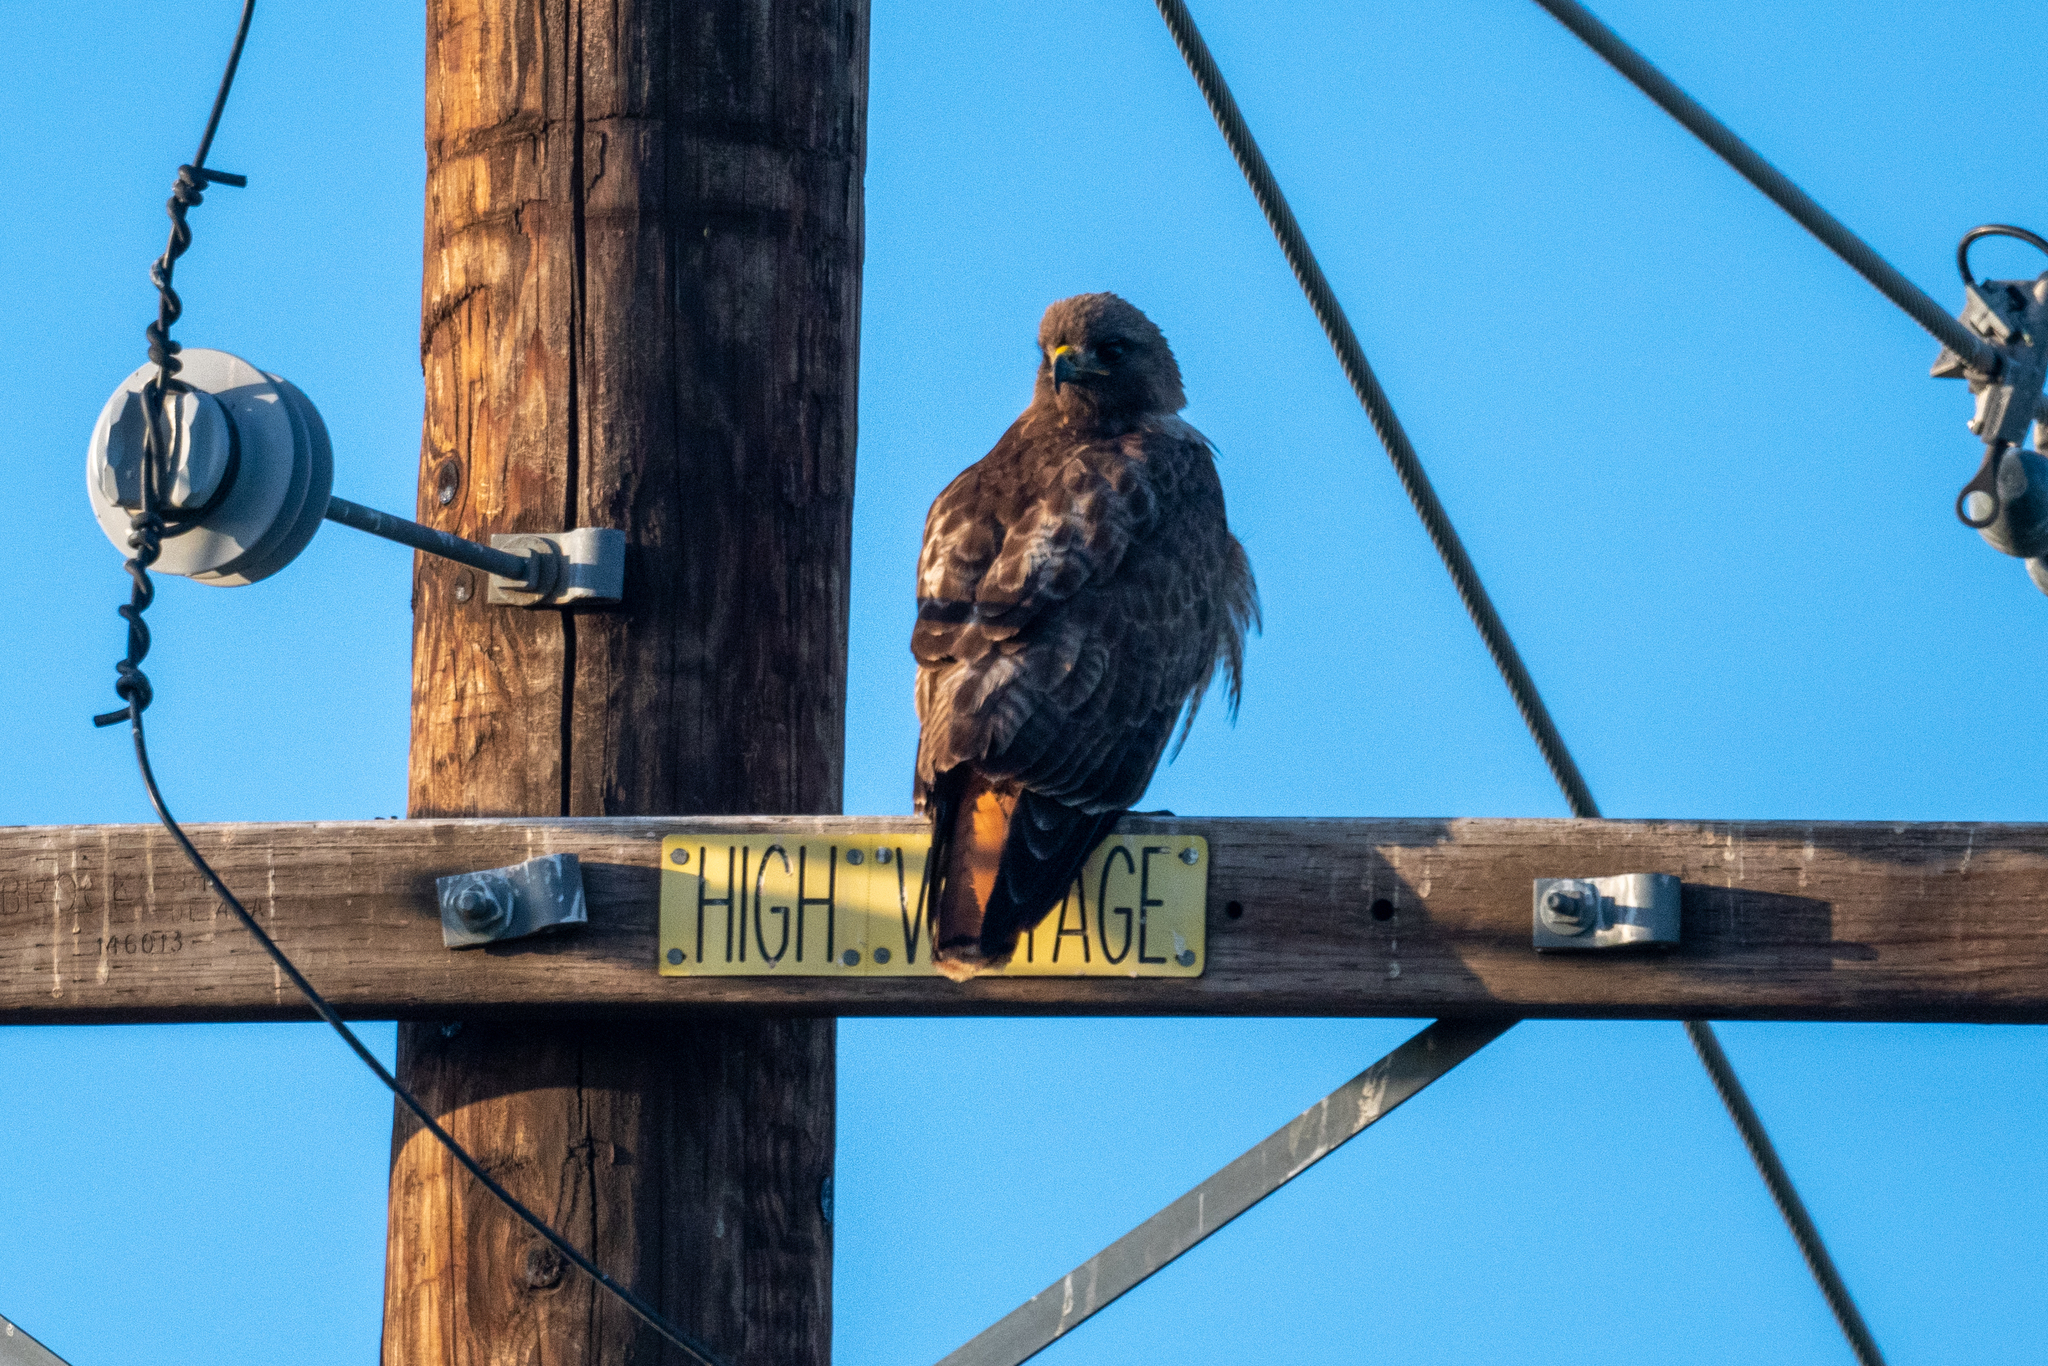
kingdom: Animalia
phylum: Chordata
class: Aves
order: Accipitriformes
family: Accipitridae
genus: Buteo
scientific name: Buteo jamaicensis
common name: Red-tailed hawk
